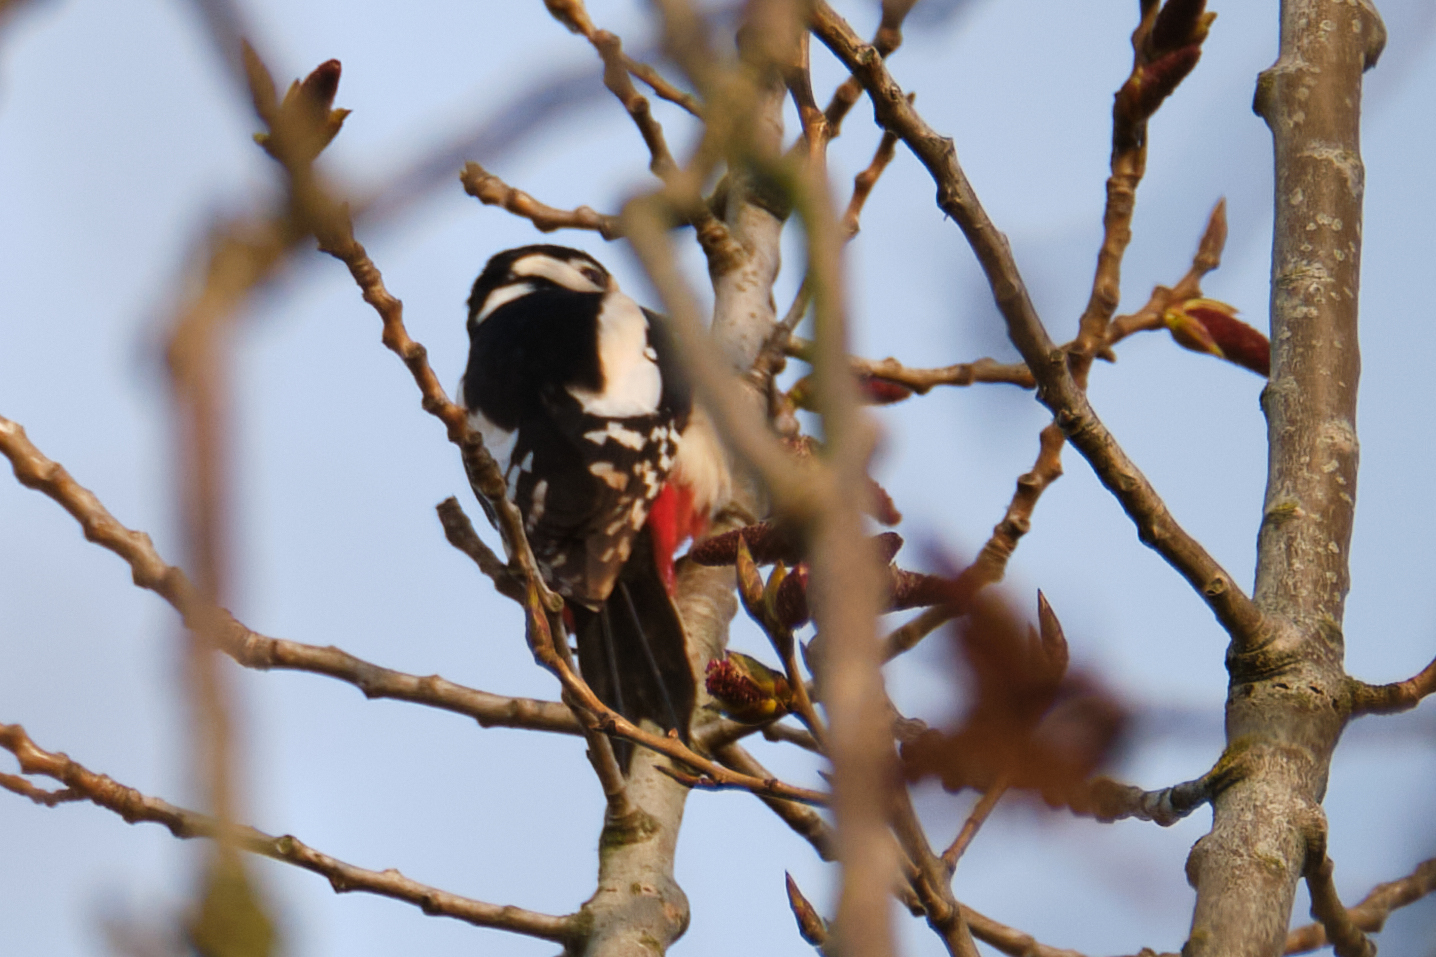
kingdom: Animalia
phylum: Chordata
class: Aves
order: Piciformes
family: Picidae
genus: Dendrocopos
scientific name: Dendrocopos major
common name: Great spotted woodpecker
